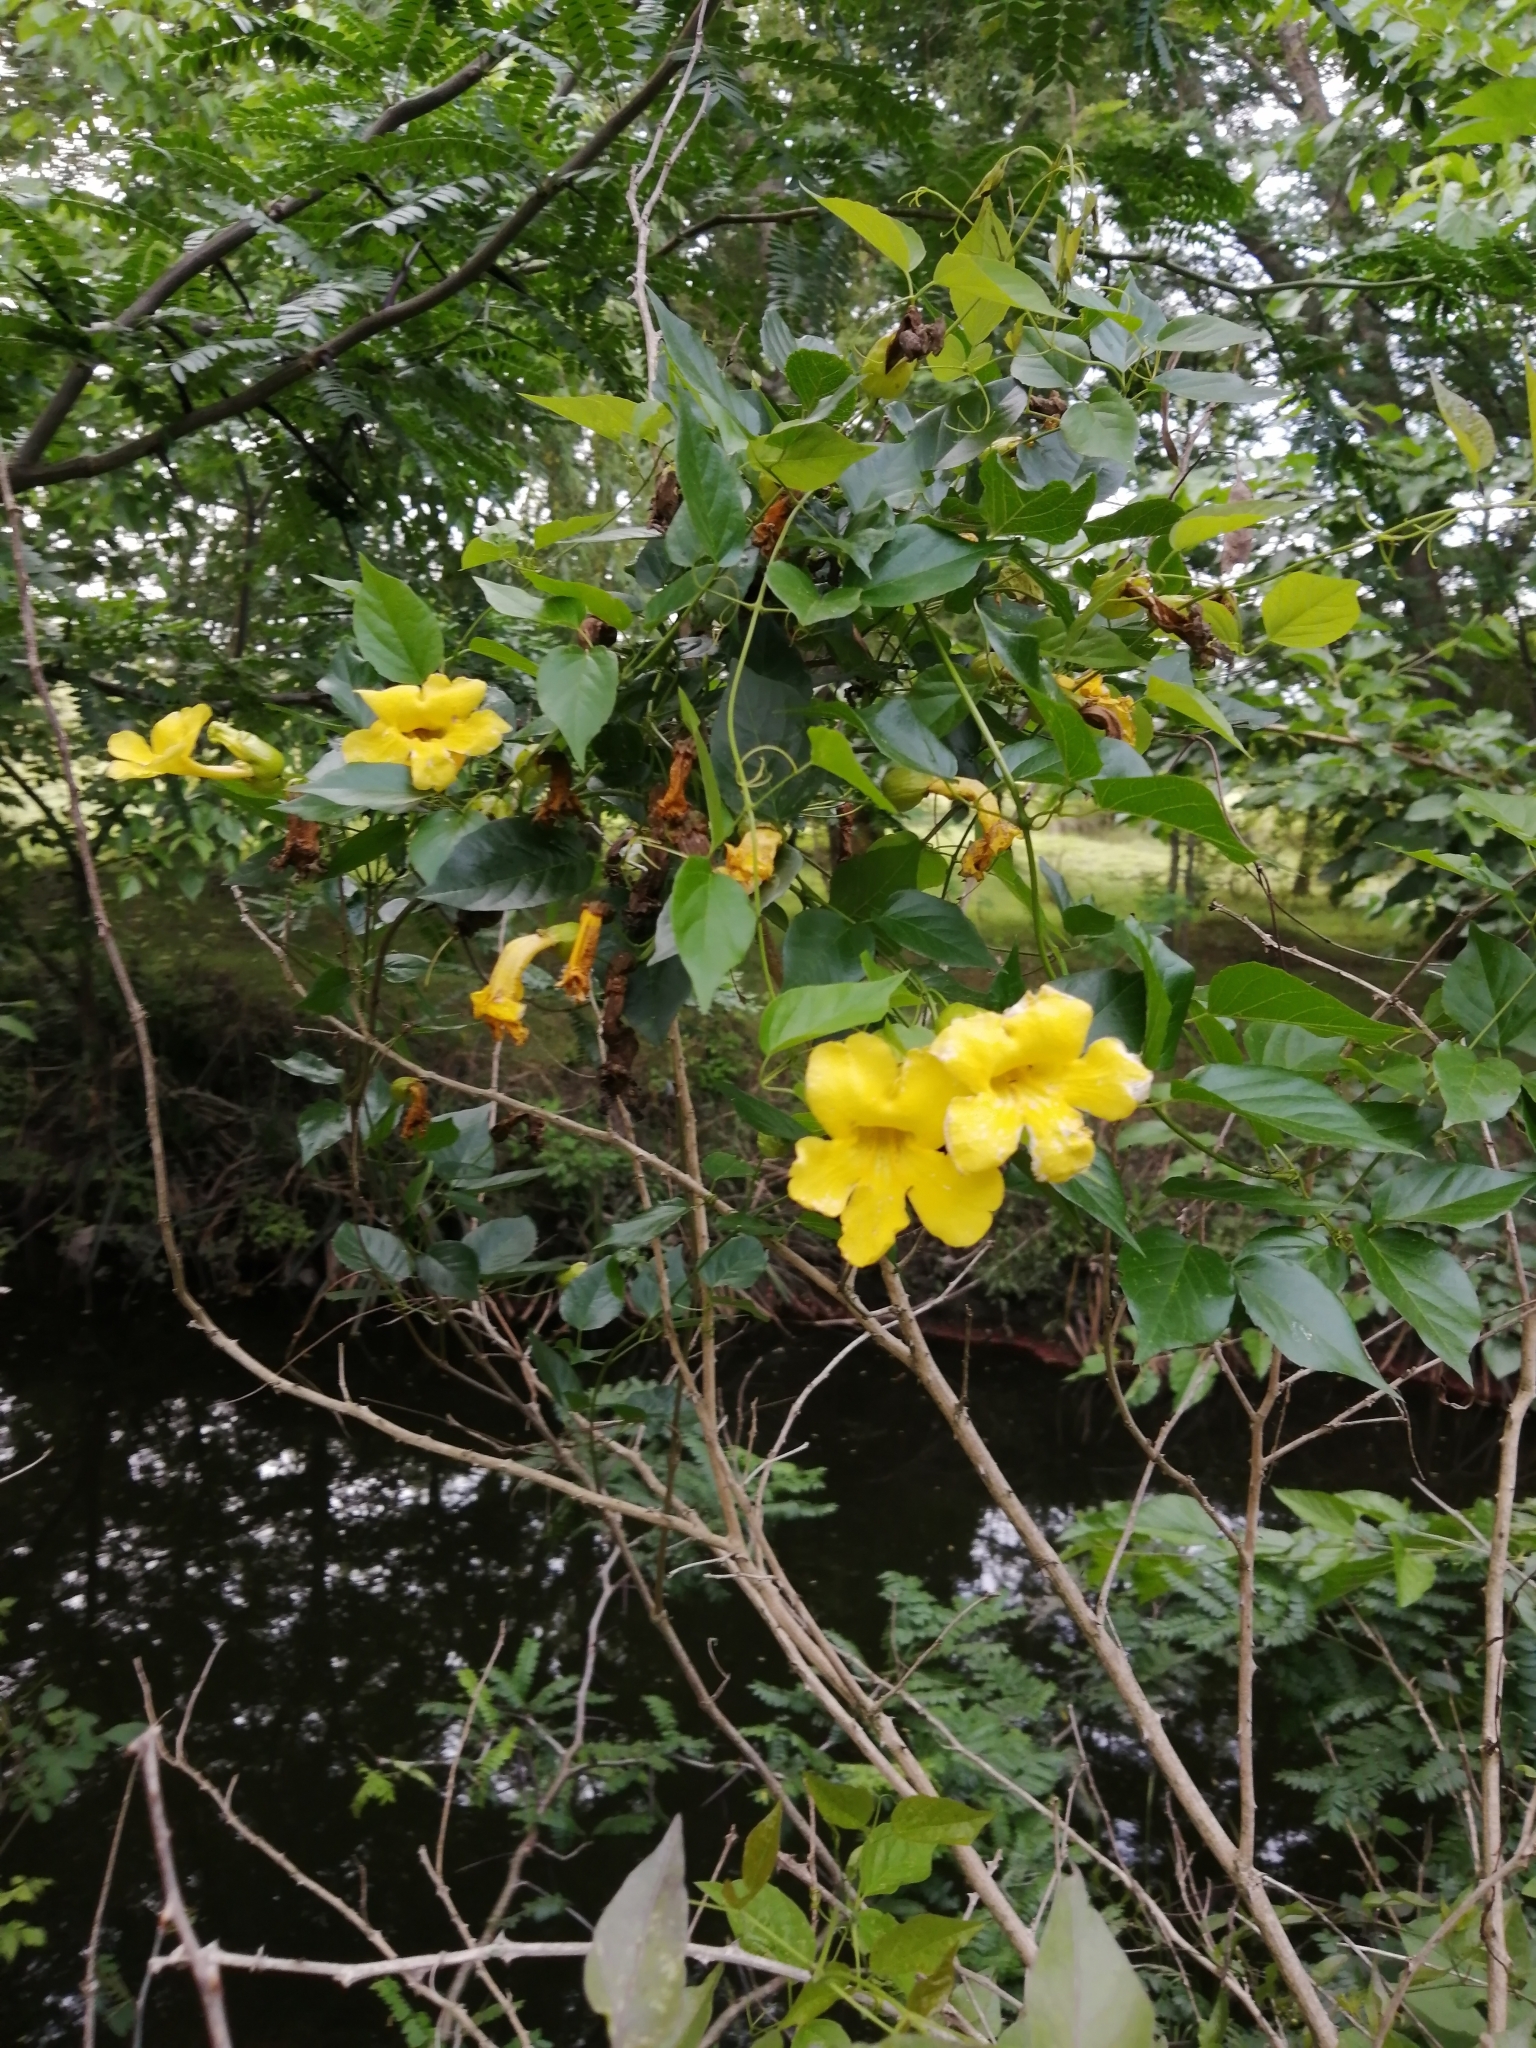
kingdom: Plantae
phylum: Tracheophyta
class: Magnoliopsida
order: Lamiales
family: Bignoniaceae
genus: Dolichandra
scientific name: Dolichandra unguis-cati
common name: Catclaw vine
